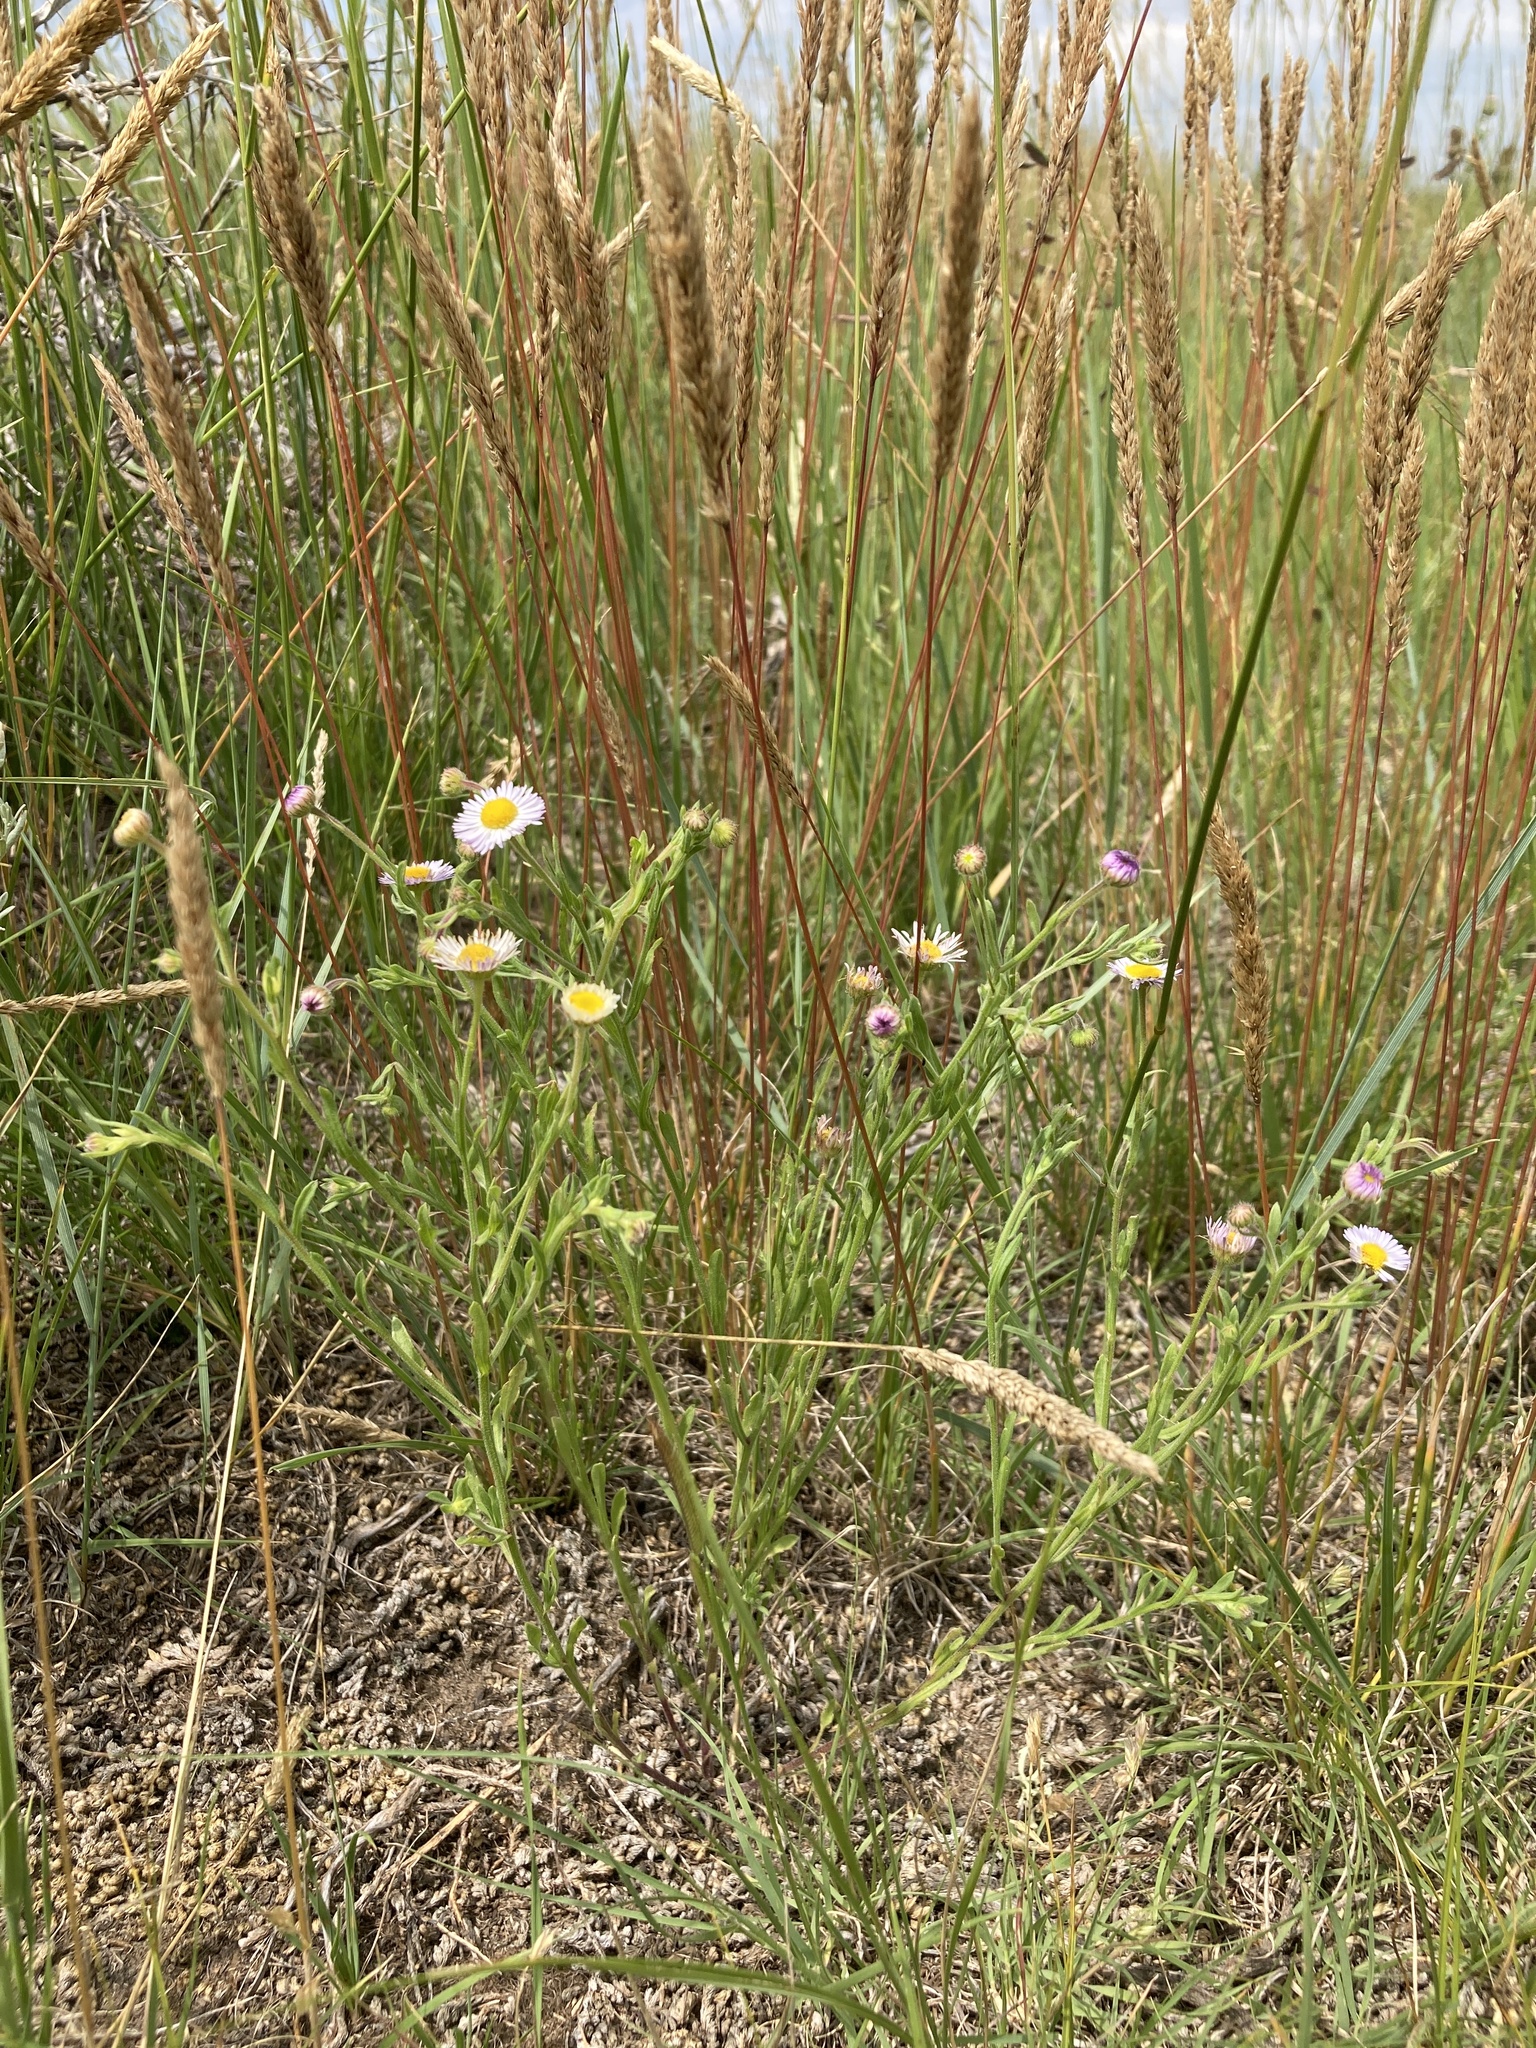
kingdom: Plantae
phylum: Tracheophyta
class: Magnoliopsida
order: Asterales
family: Asteraceae
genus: Erigeron
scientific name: Erigeron bellidiastrum
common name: Sand fleabane
